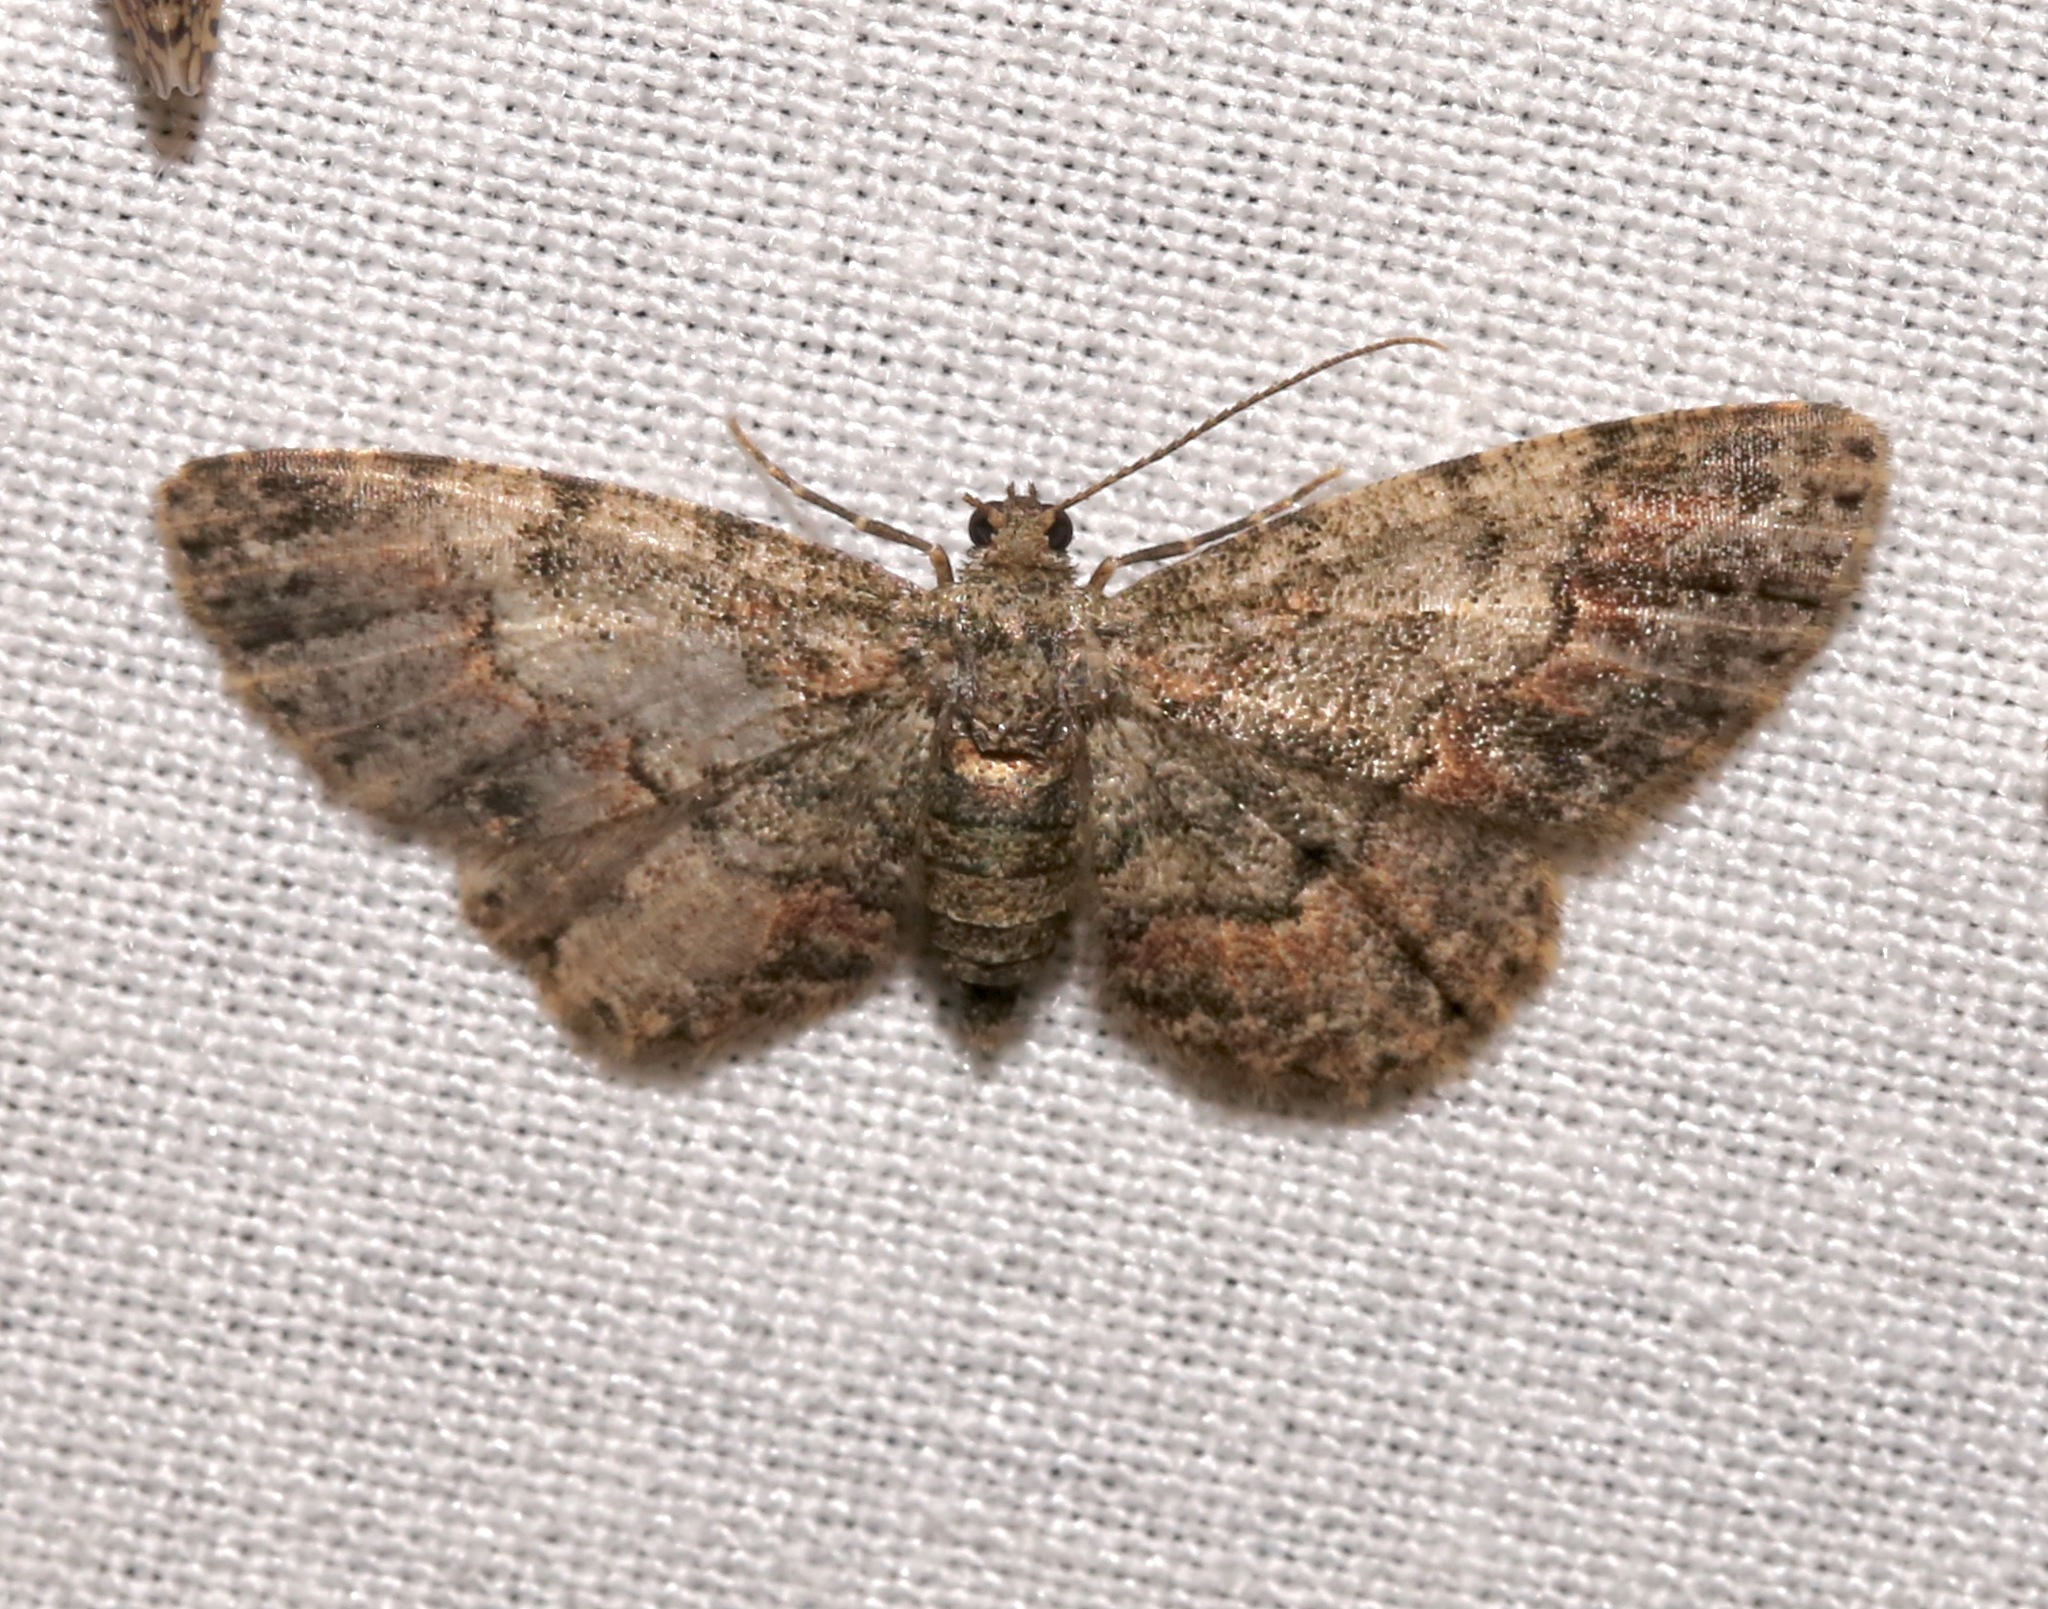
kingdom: Animalia
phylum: Arthropoda
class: Insecta
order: Lepidoptera
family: Geometridae
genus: Glenoides
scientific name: Glenoides texanaria
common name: Texas gray
